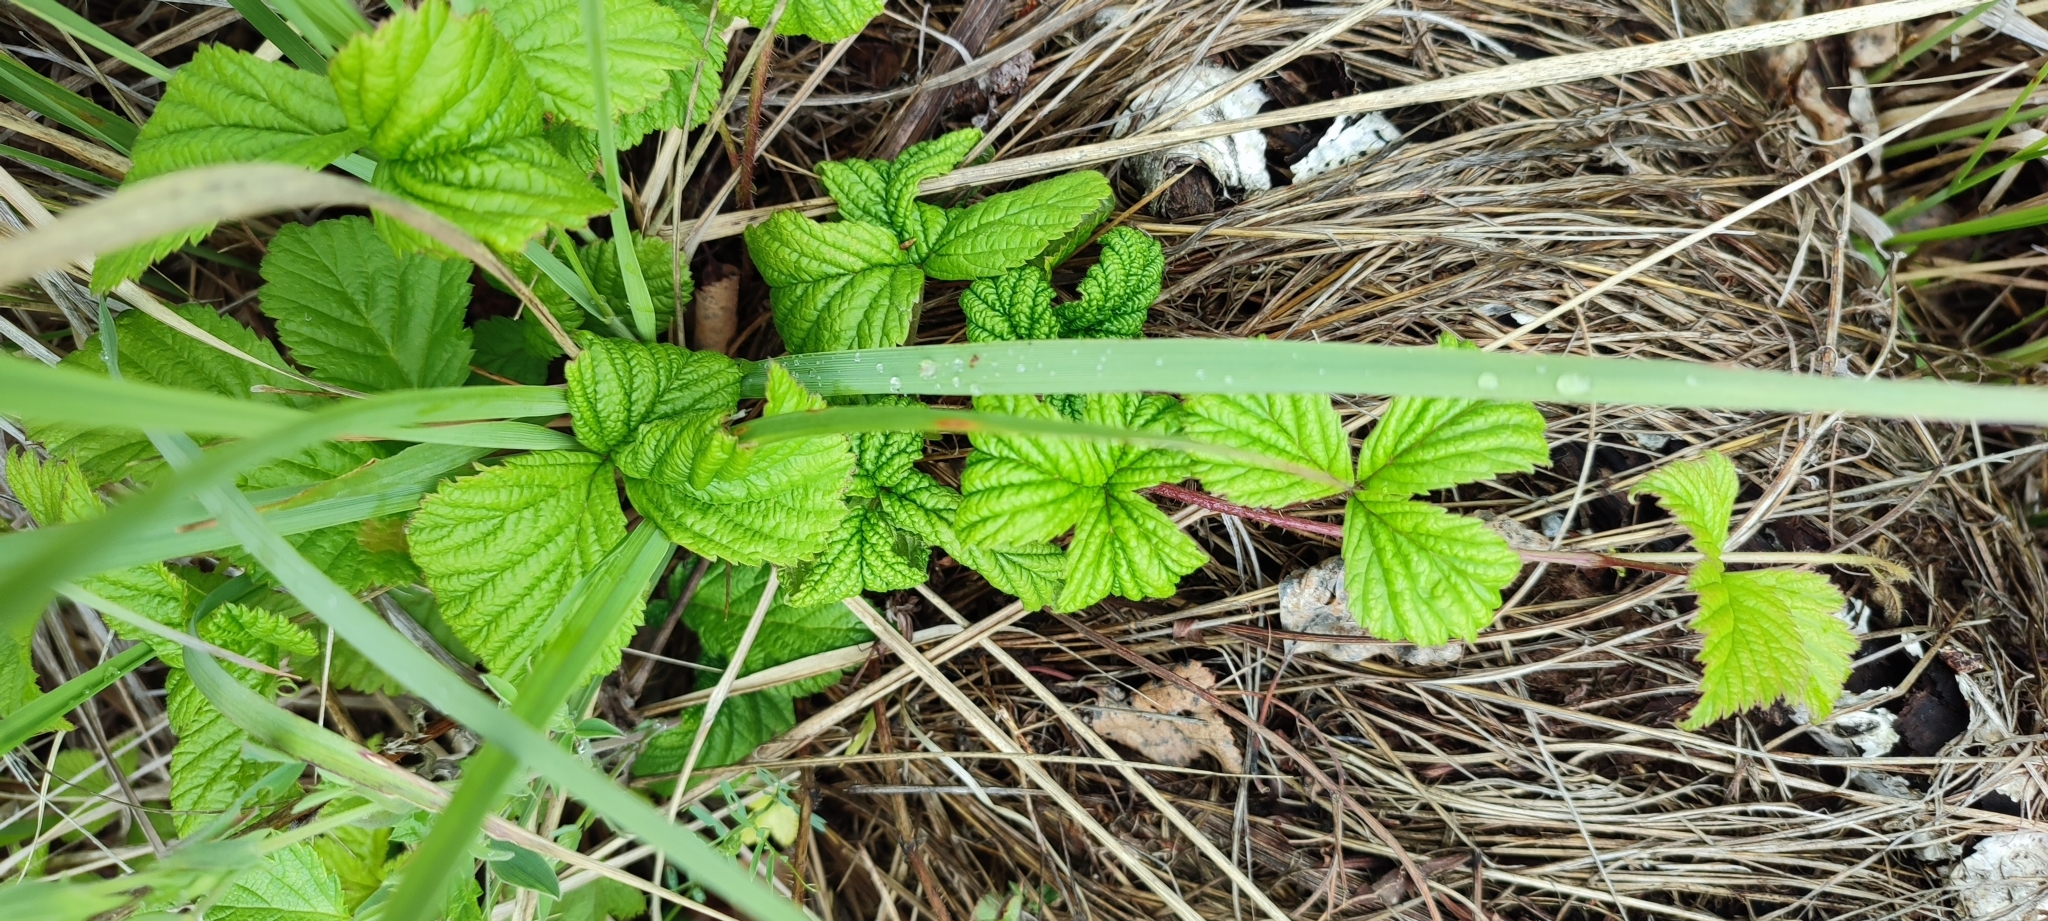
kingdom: Plantae
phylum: Tracheophyta
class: Magnoliopsida
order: Rosales
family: Rosaceae
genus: Rubus
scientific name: Rubus saxatilis
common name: Stone bramble
